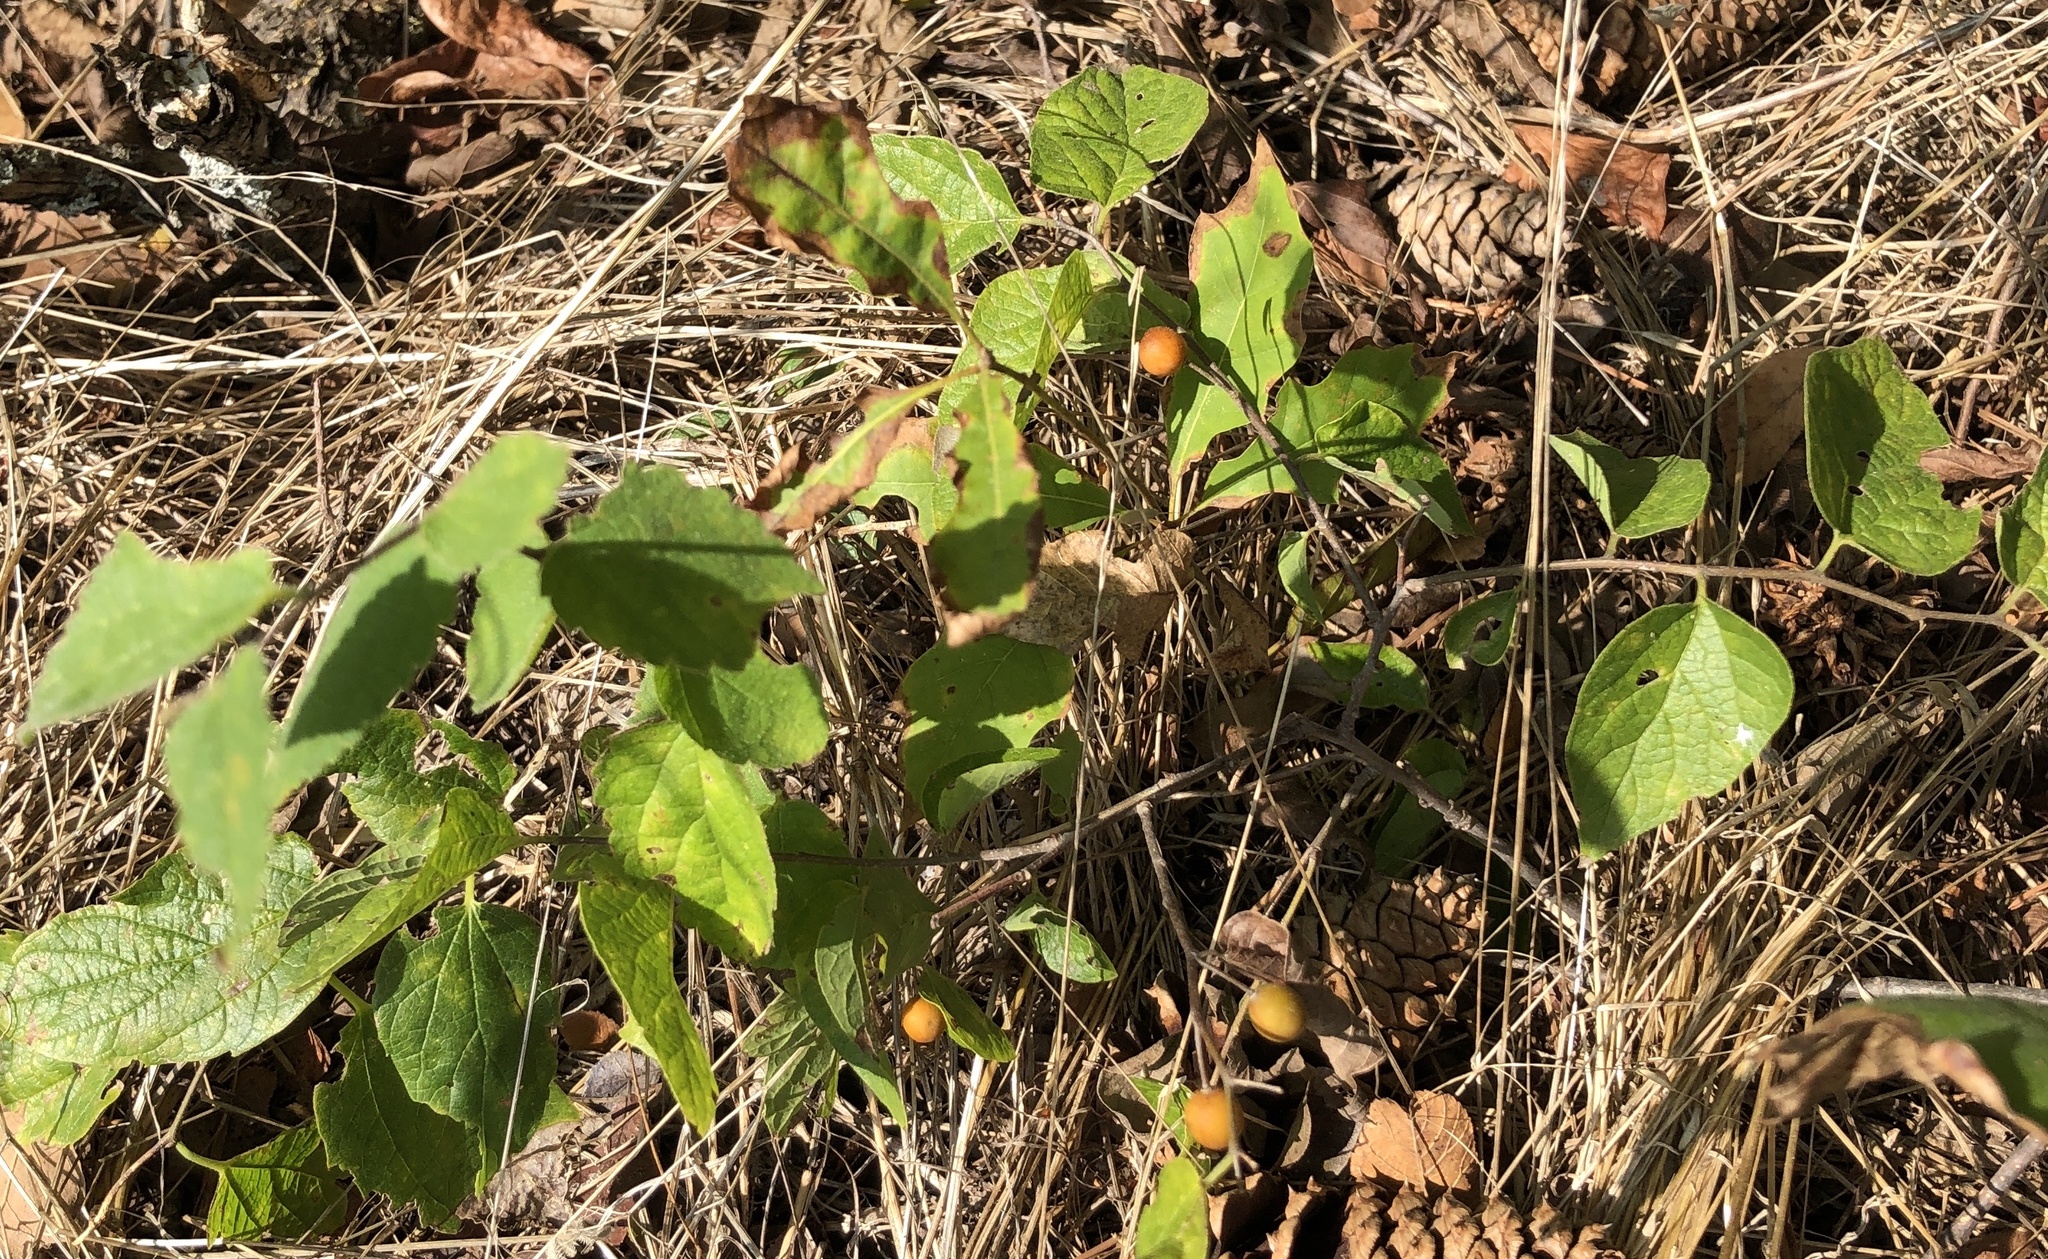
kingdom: Plantae
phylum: Tracheophyta
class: Magnoliopsida
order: Rosales
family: Cannabaceae
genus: Celtis
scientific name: Celtis laevigata
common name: Sugarberry
